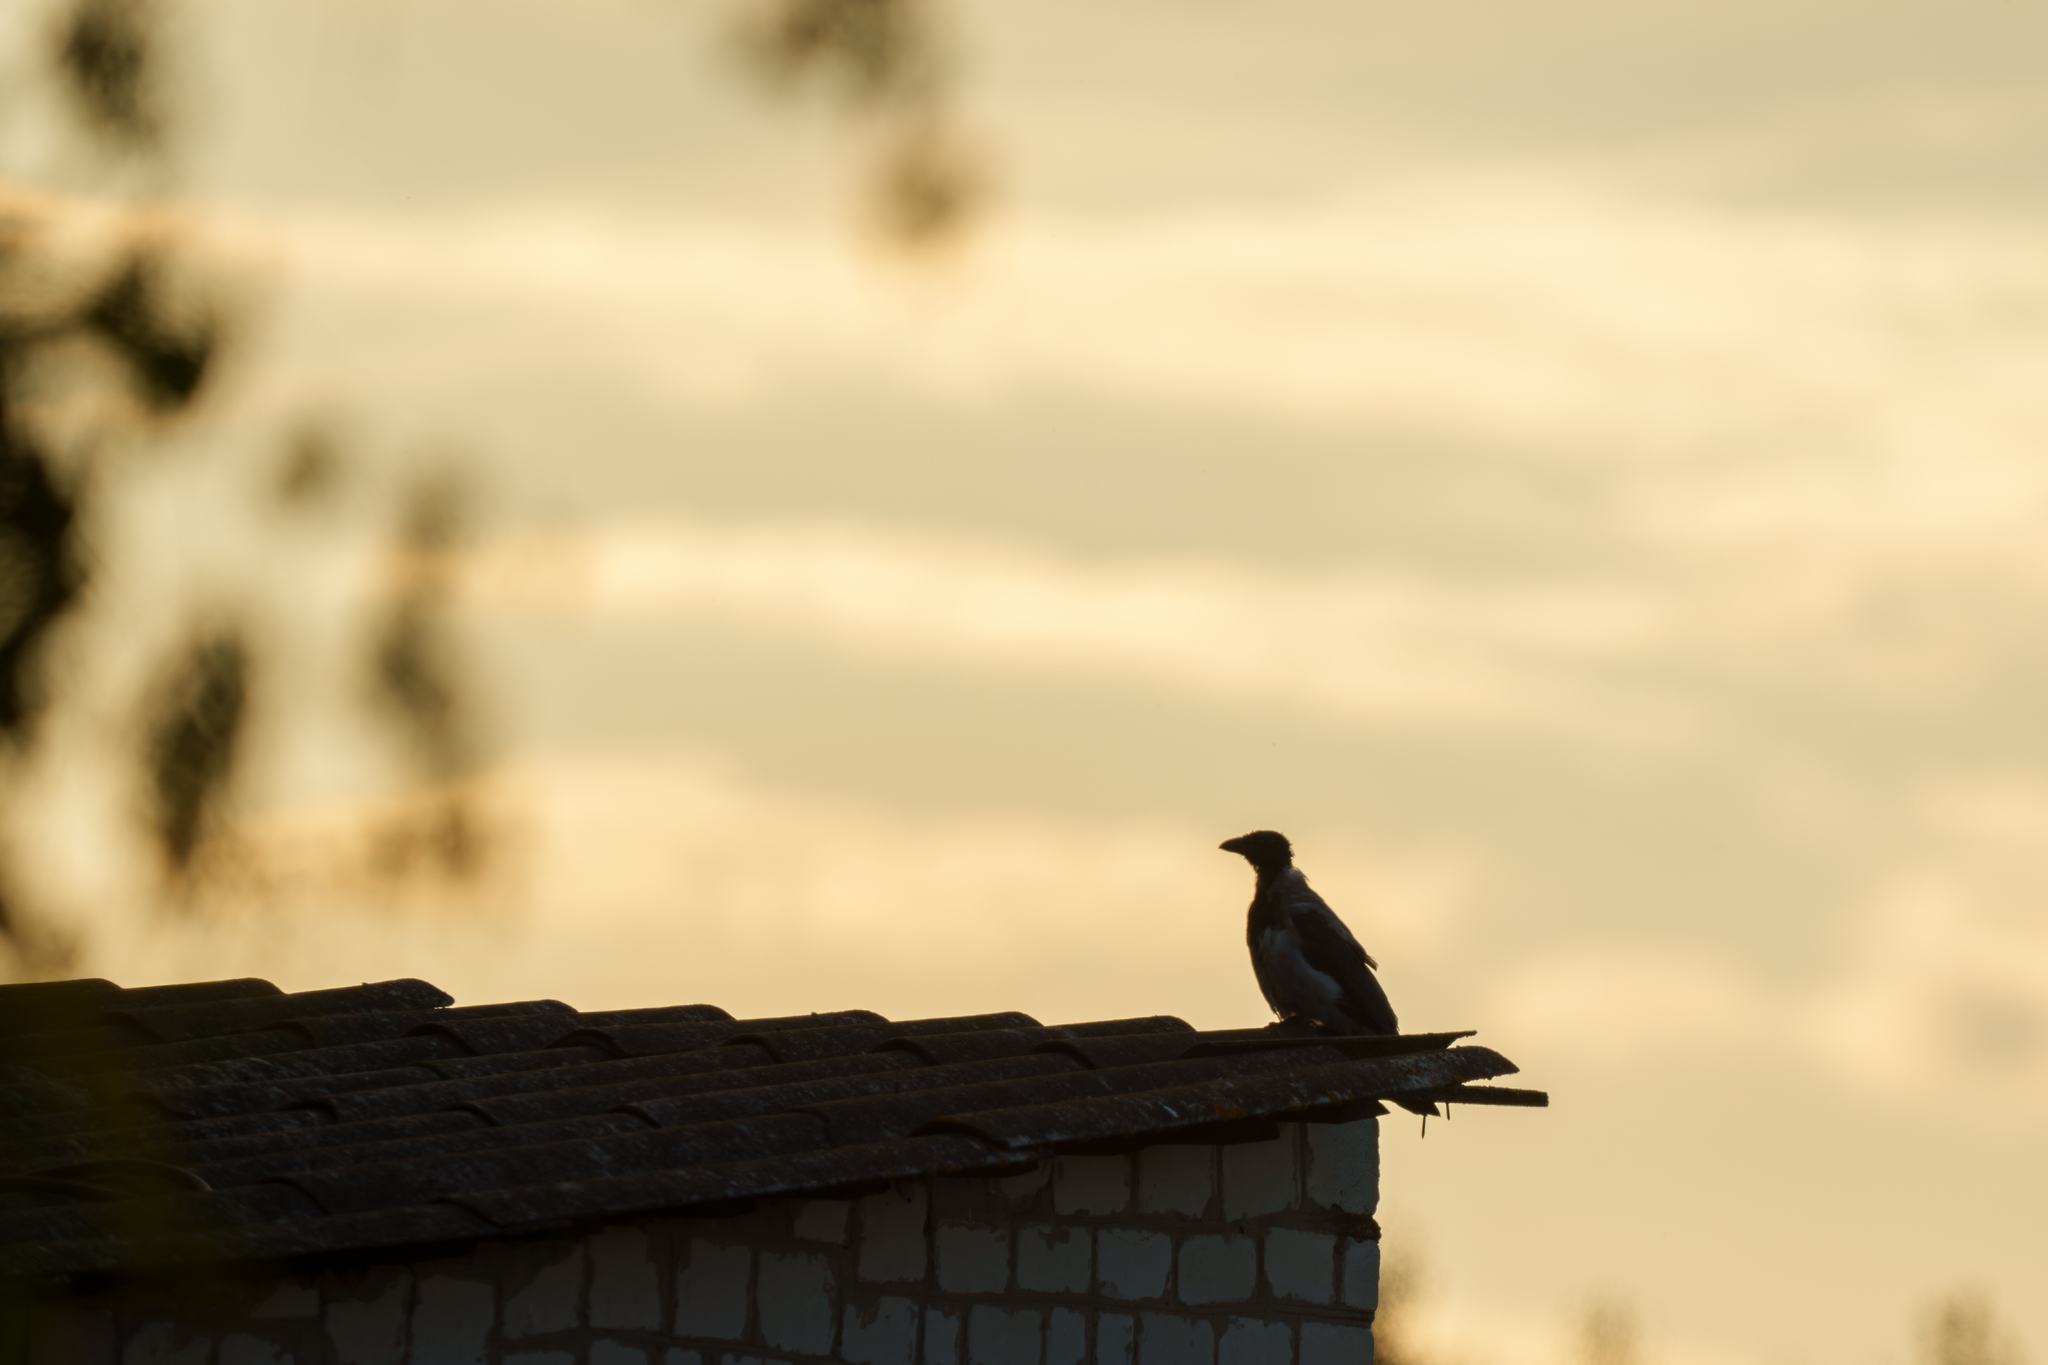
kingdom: Animalia
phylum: Chordata
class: Aves
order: Passeriformes
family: Corvidae
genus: Corvus
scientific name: Corvus cornix
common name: Hooded crow
